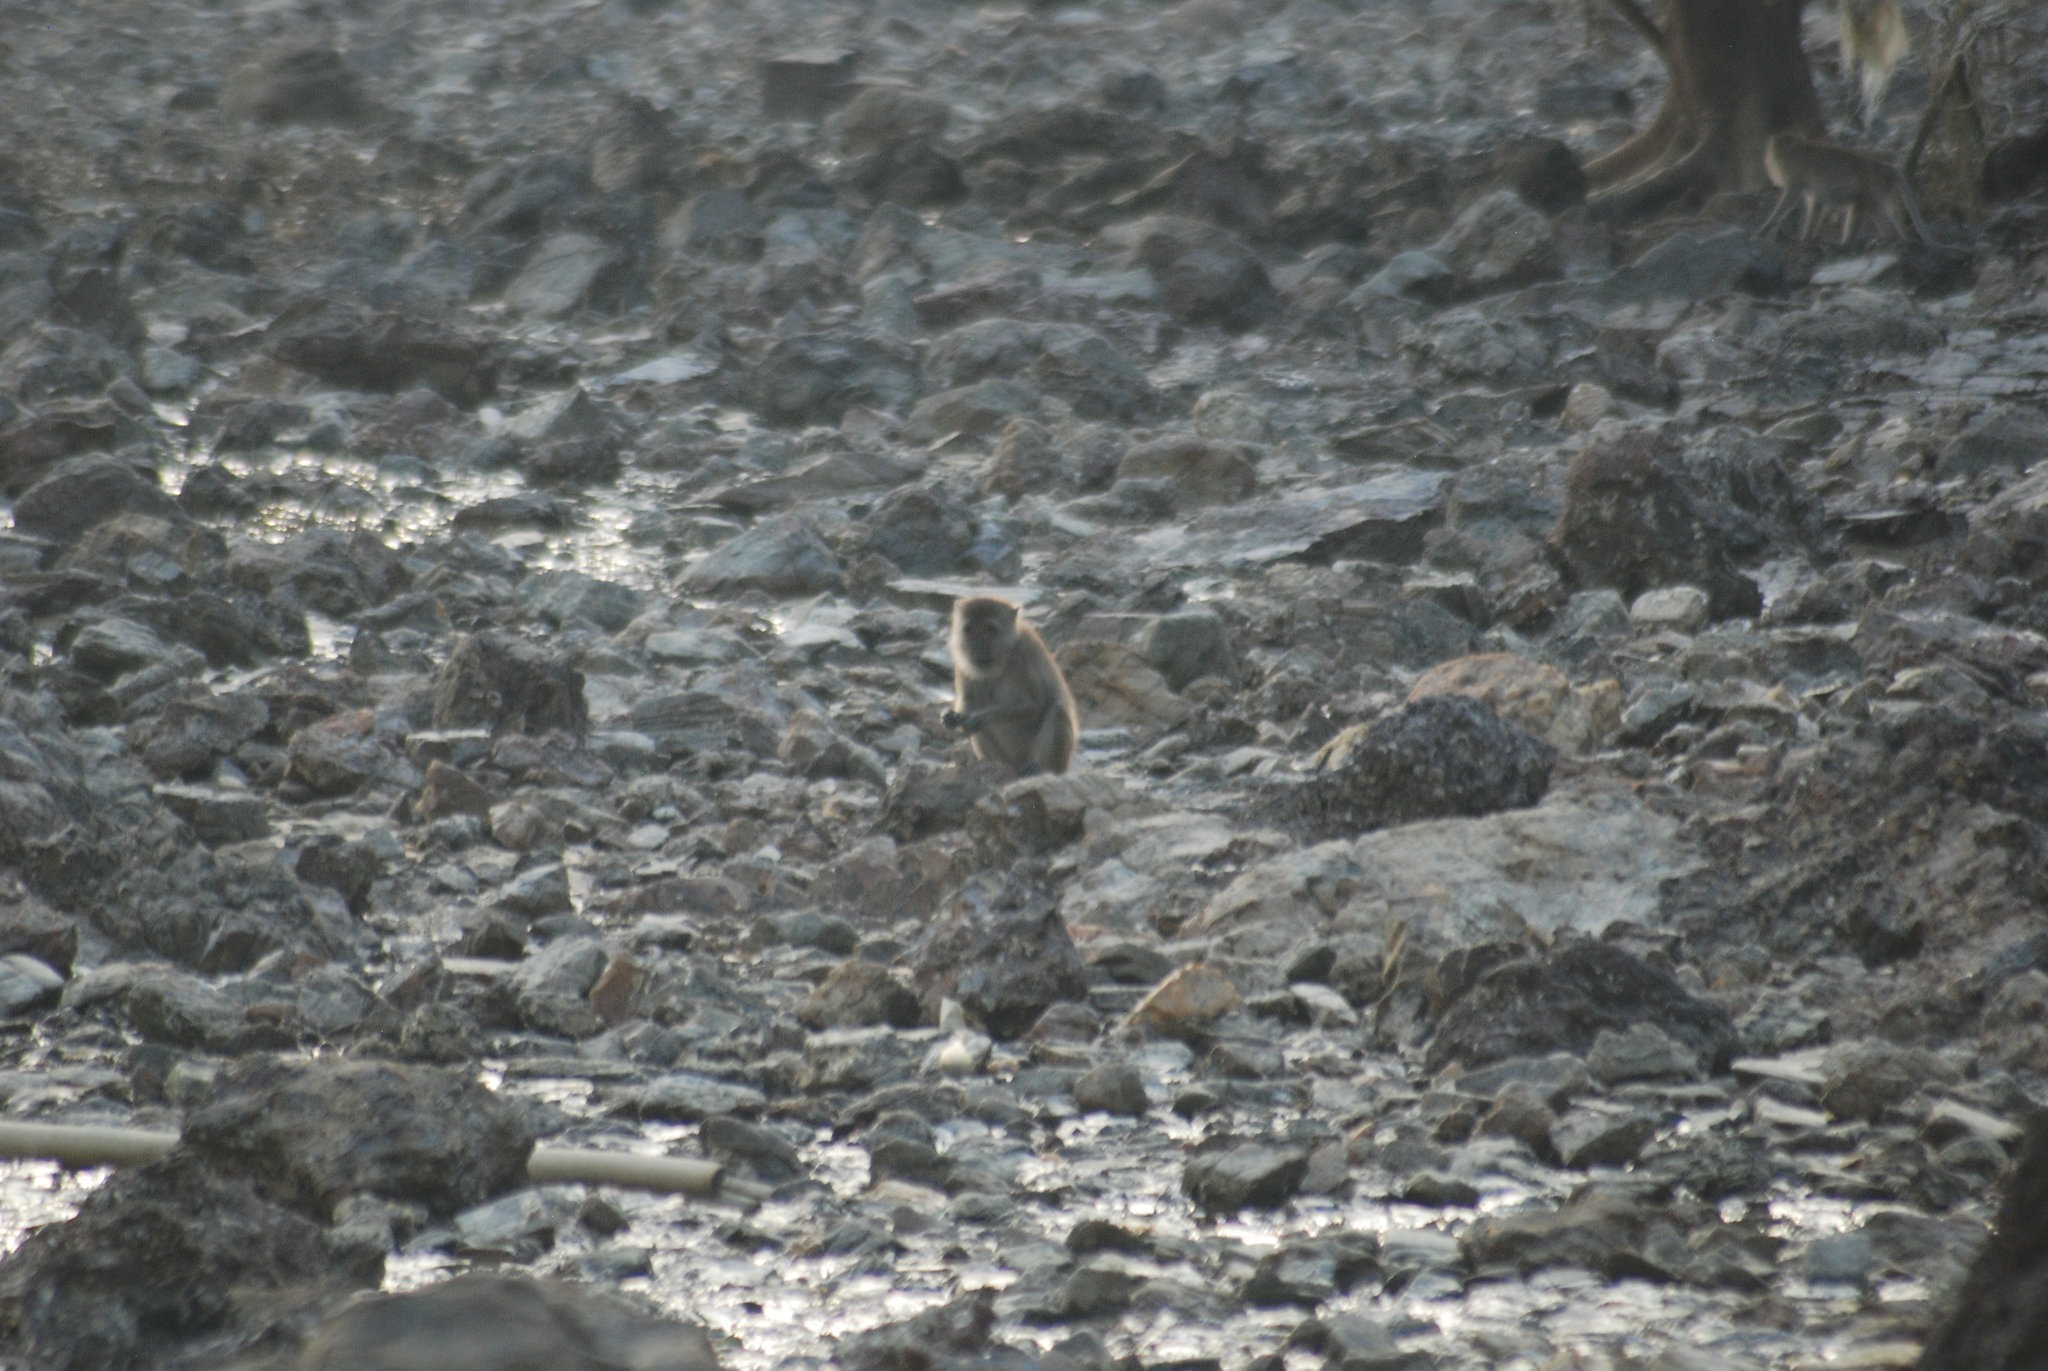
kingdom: Animalia
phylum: Chordata
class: Mammalia
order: Primates
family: Cercopithecidae
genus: Macaca
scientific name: Macaca fascicularis
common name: Crab-eating macaque
